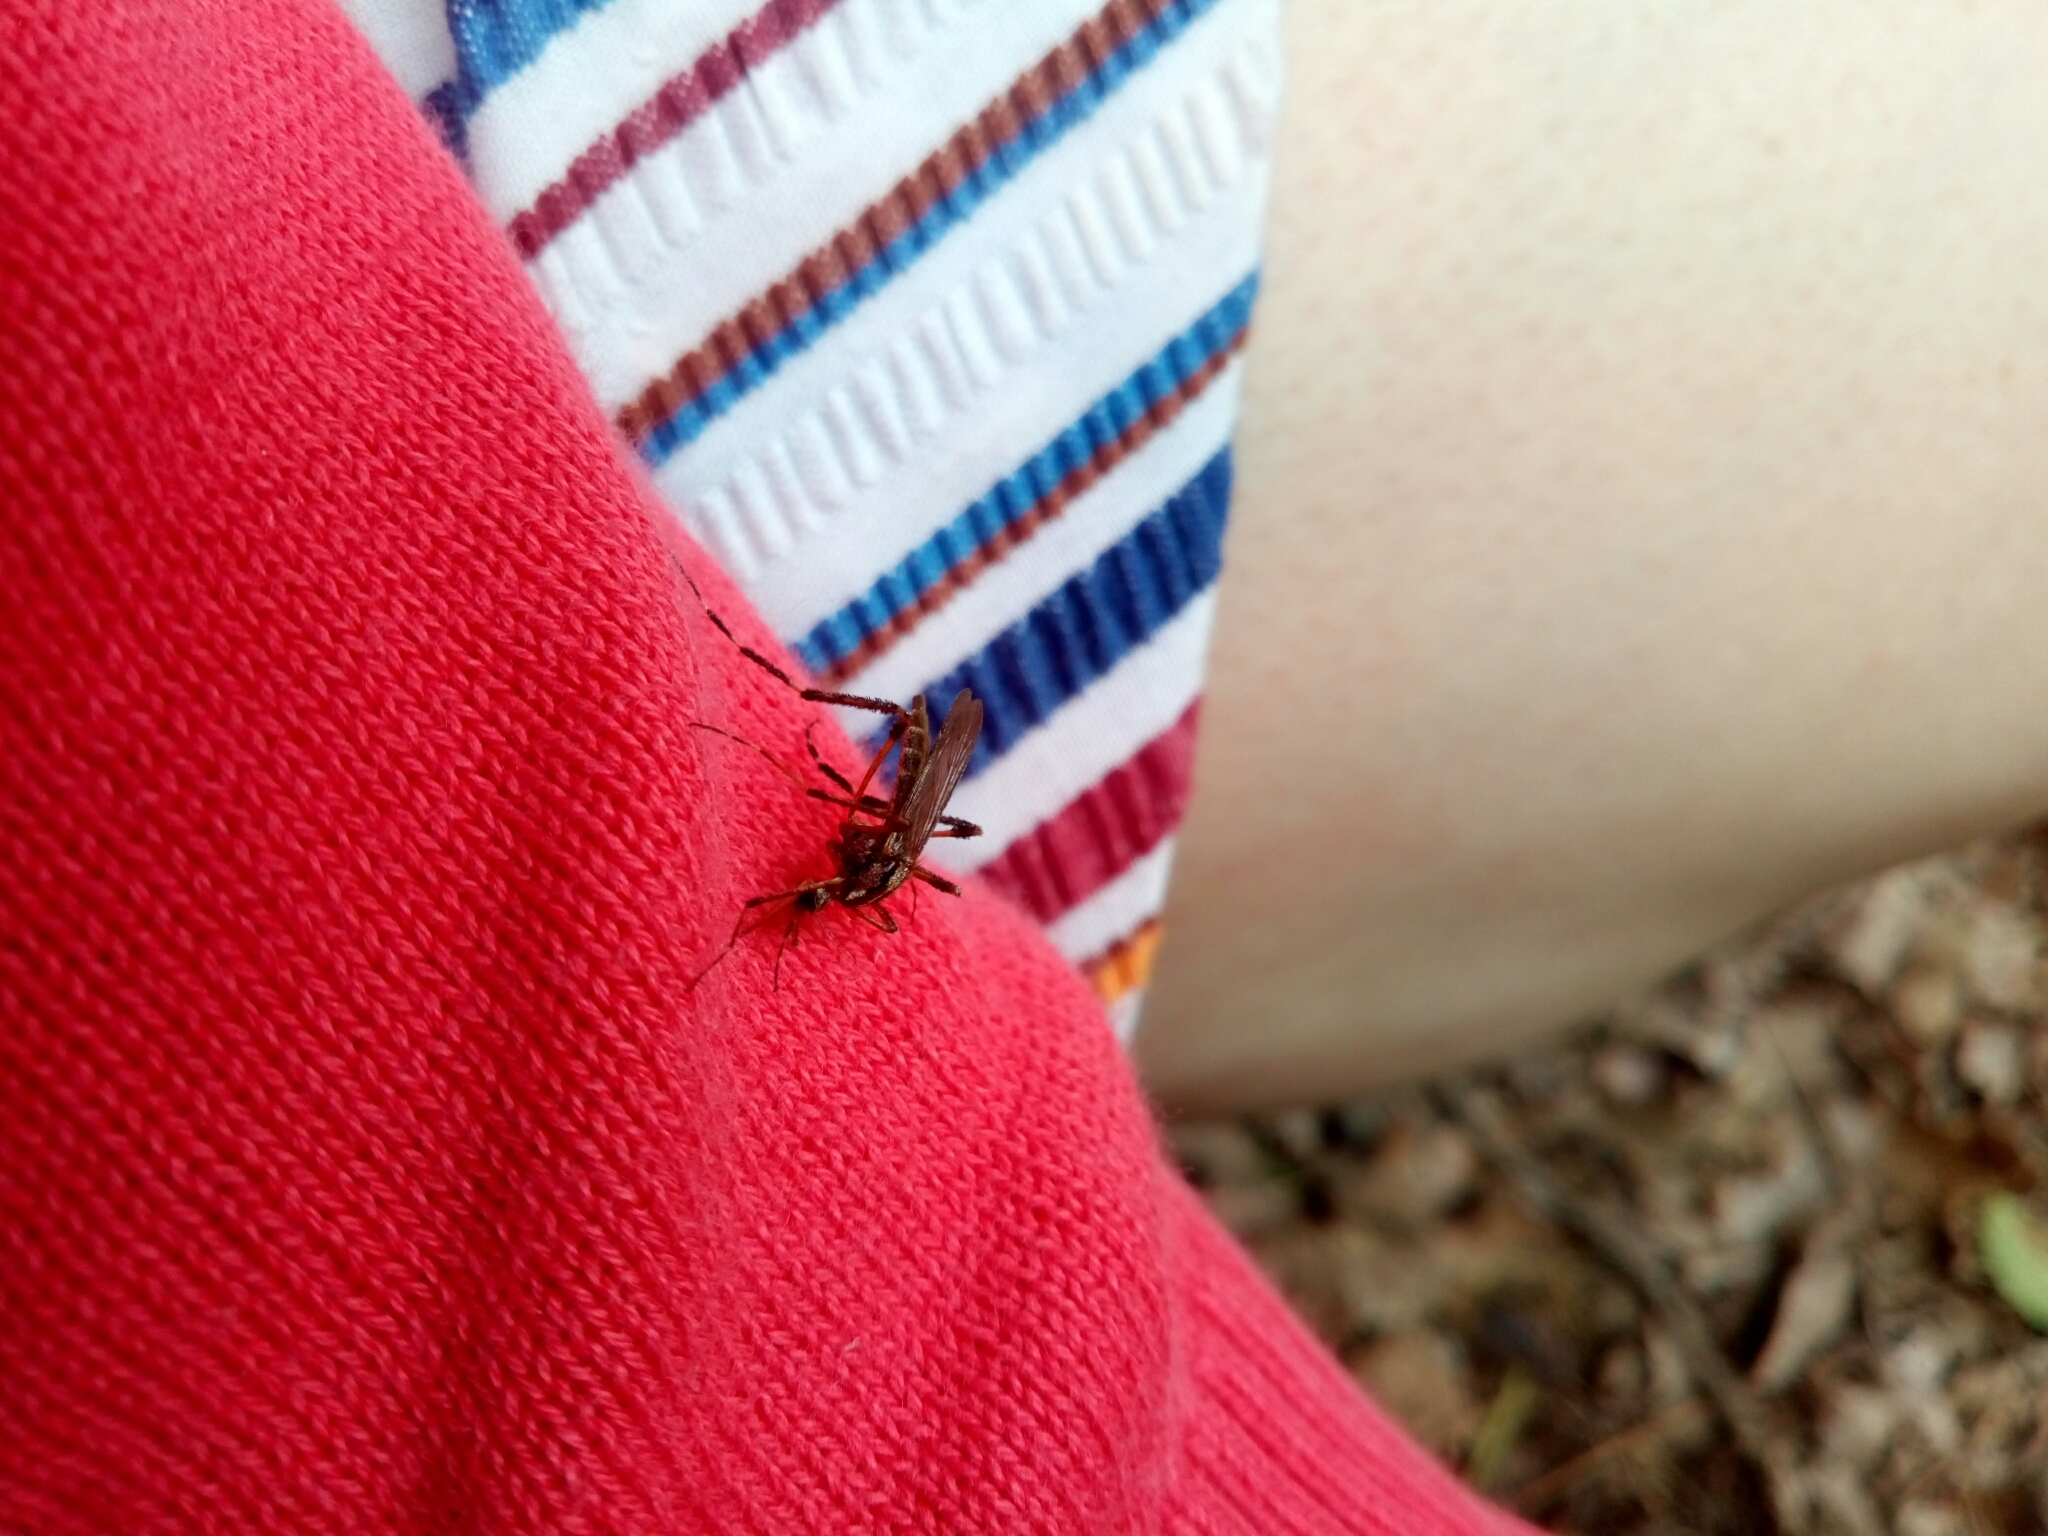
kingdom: Animalia
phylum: Arthropoda
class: Insecta
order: Diptera
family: Culicidae
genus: Psorophora
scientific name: Psorophora ciliata
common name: Gallinipper
